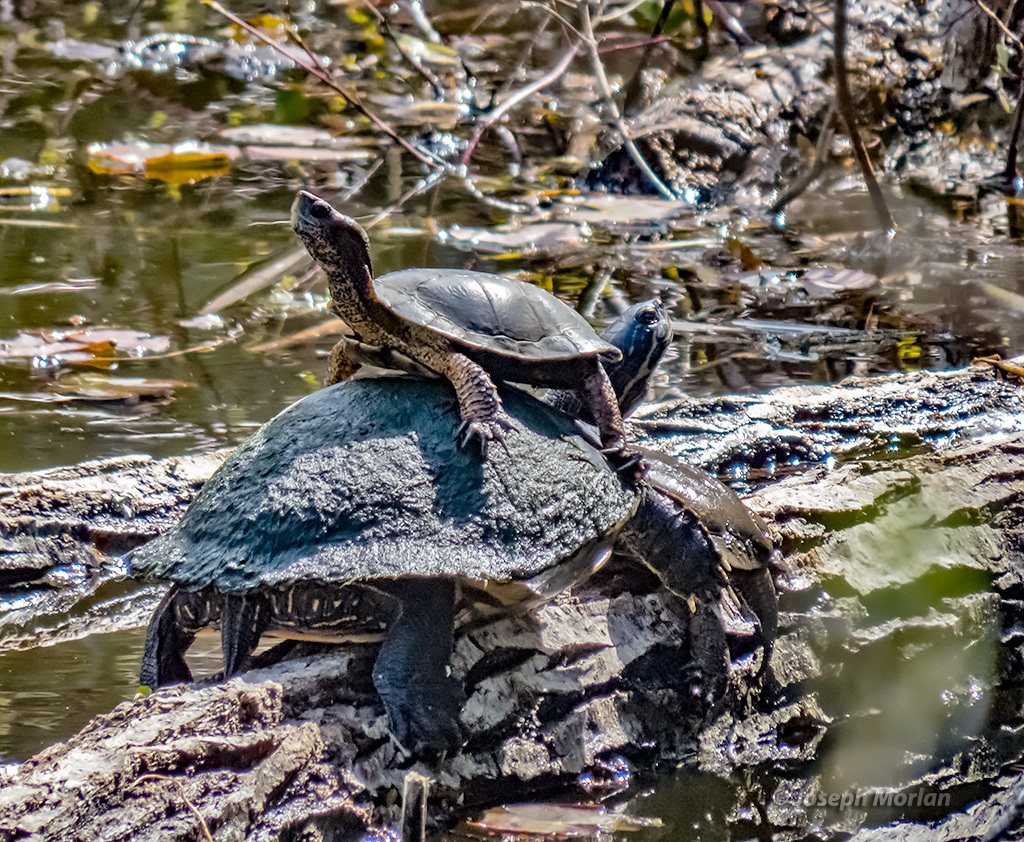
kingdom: Animalia
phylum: Chordata
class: Testudines
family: Emydidae
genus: Actinemys
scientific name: Actinemys pallida
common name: Southern pacific pond turtle
